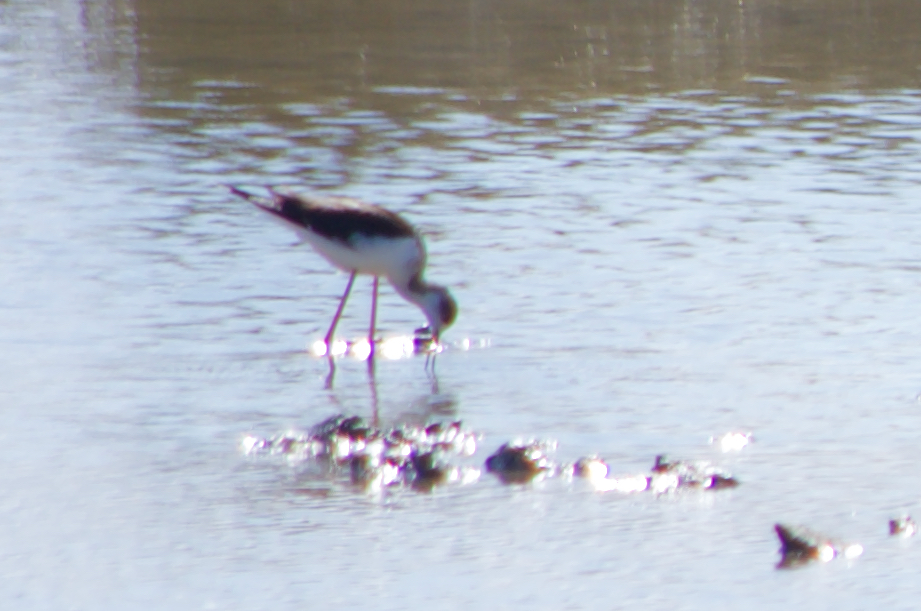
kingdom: Animalia
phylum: Chordata
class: Aves
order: Charadriiformes
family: Recurvirostridae
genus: Himantopus
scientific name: Himantopus himantopus
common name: Black-winged stilt
